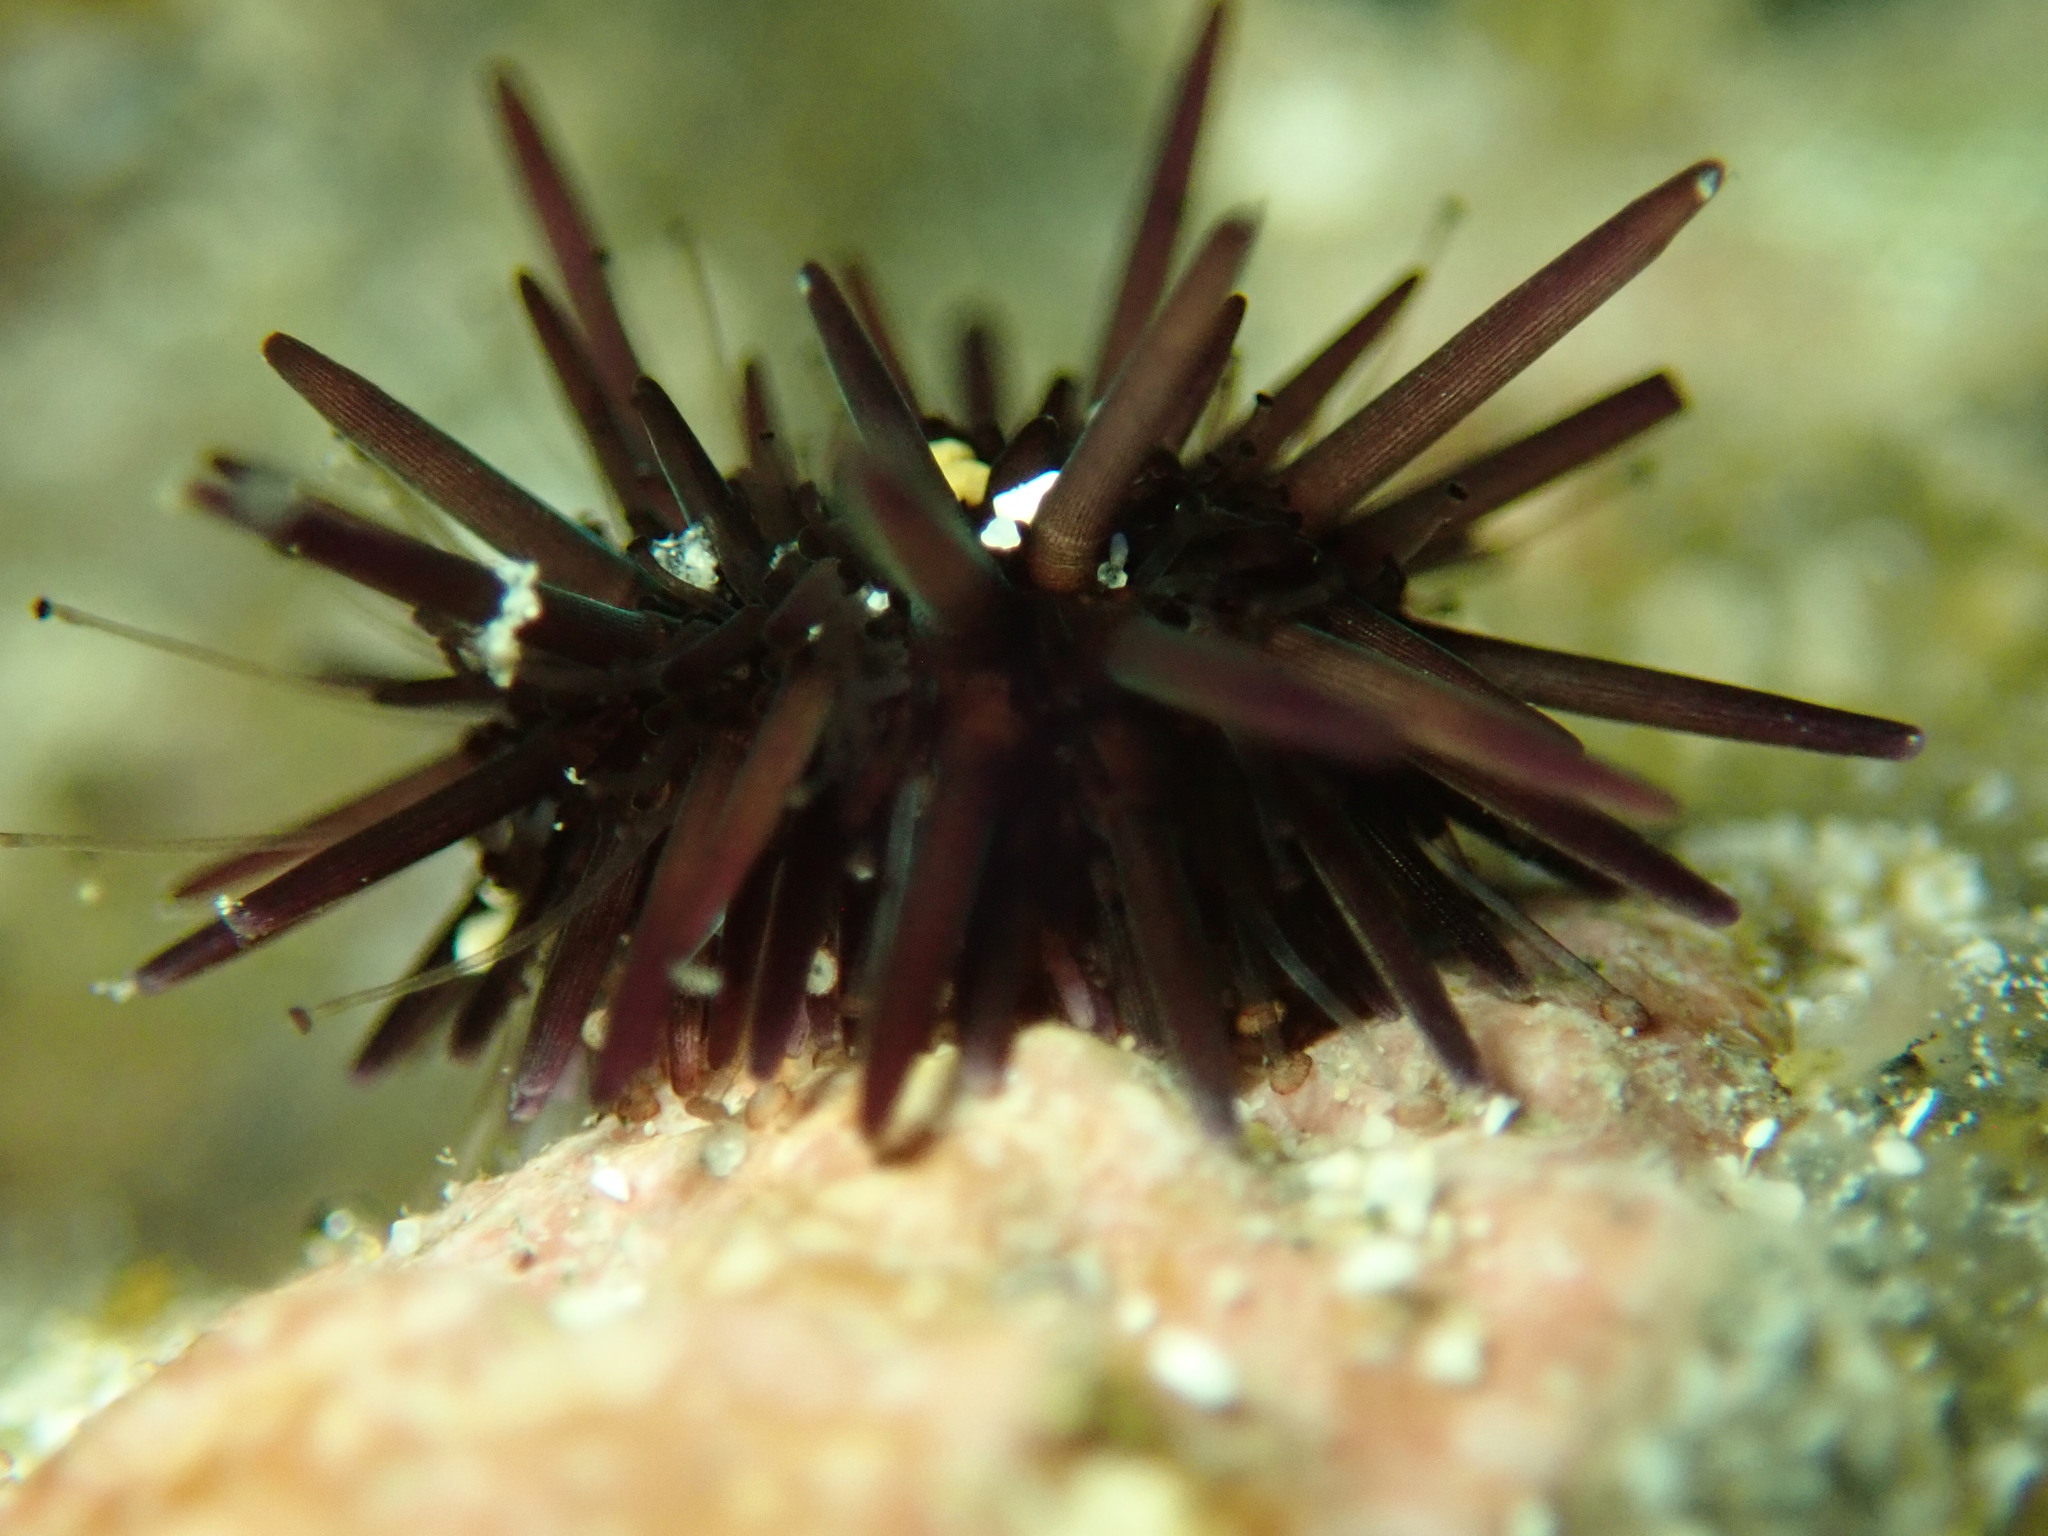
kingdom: Animalia
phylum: Echinodermata
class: Echinoidea
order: Camarodonta
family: Echinometridae
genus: Echinometra
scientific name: Echinometra vanbrunti
